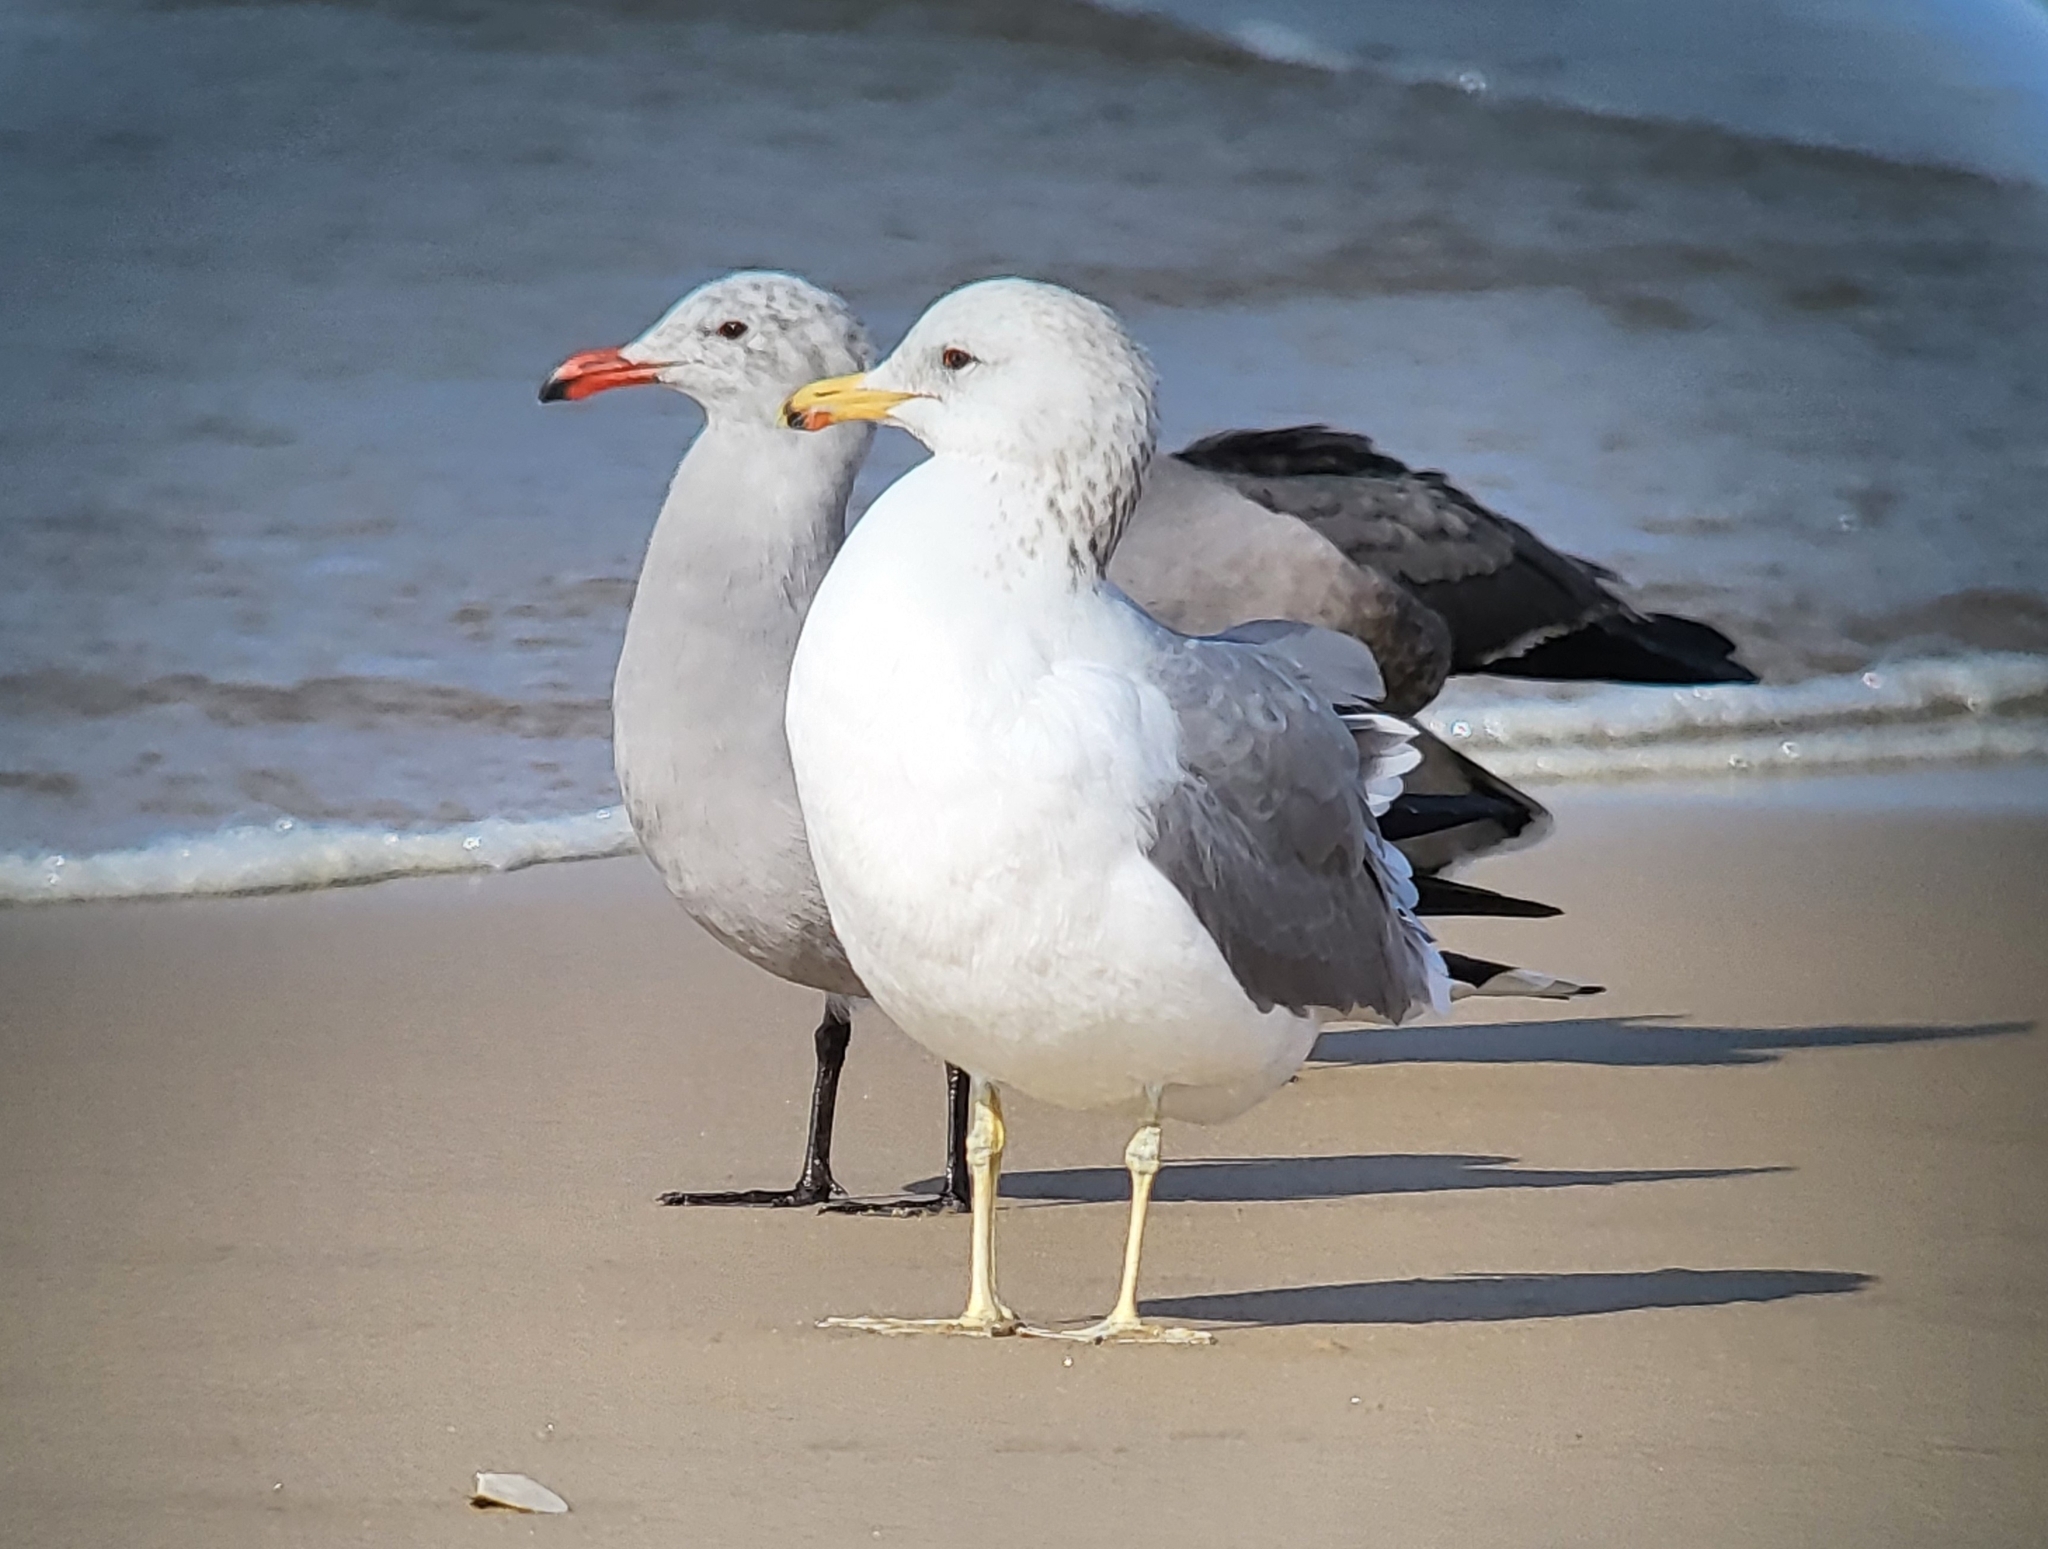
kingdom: Animalia
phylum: Chordata
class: Aves
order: Charadriiformes
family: Laridae
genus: Larus
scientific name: Larus californicus
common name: California gull
